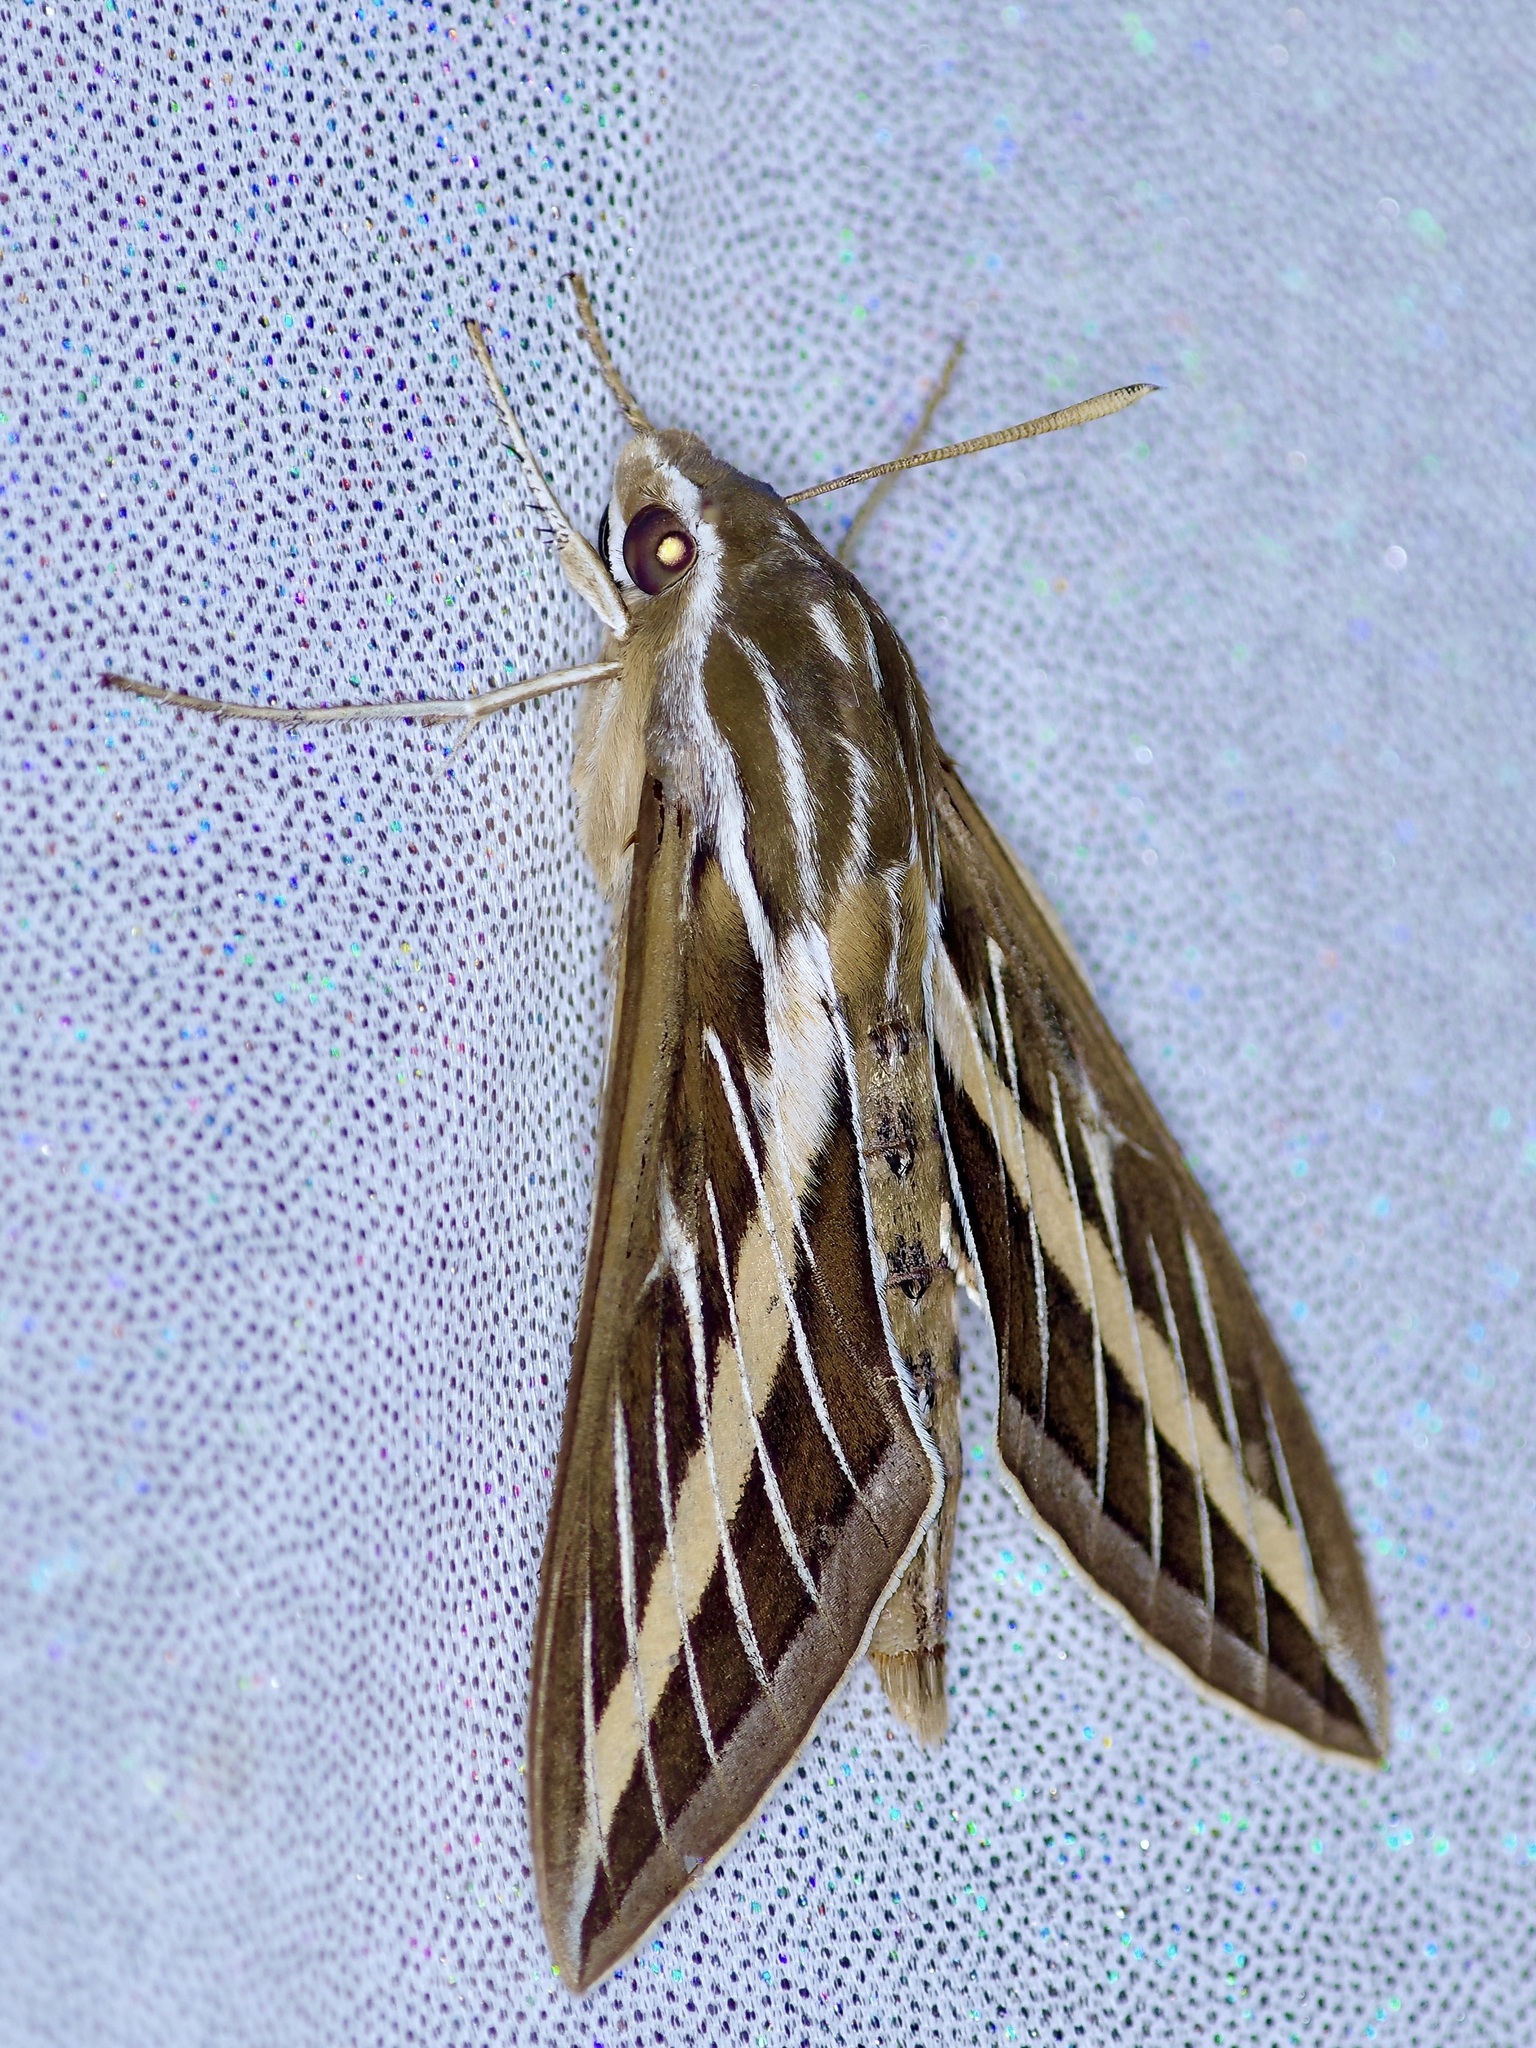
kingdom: Animalia
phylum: Arthropoda
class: Insecta
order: Lepidoptera
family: Sphingidae
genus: Hyles
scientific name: Hyles lineata
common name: White-lined sphinx
